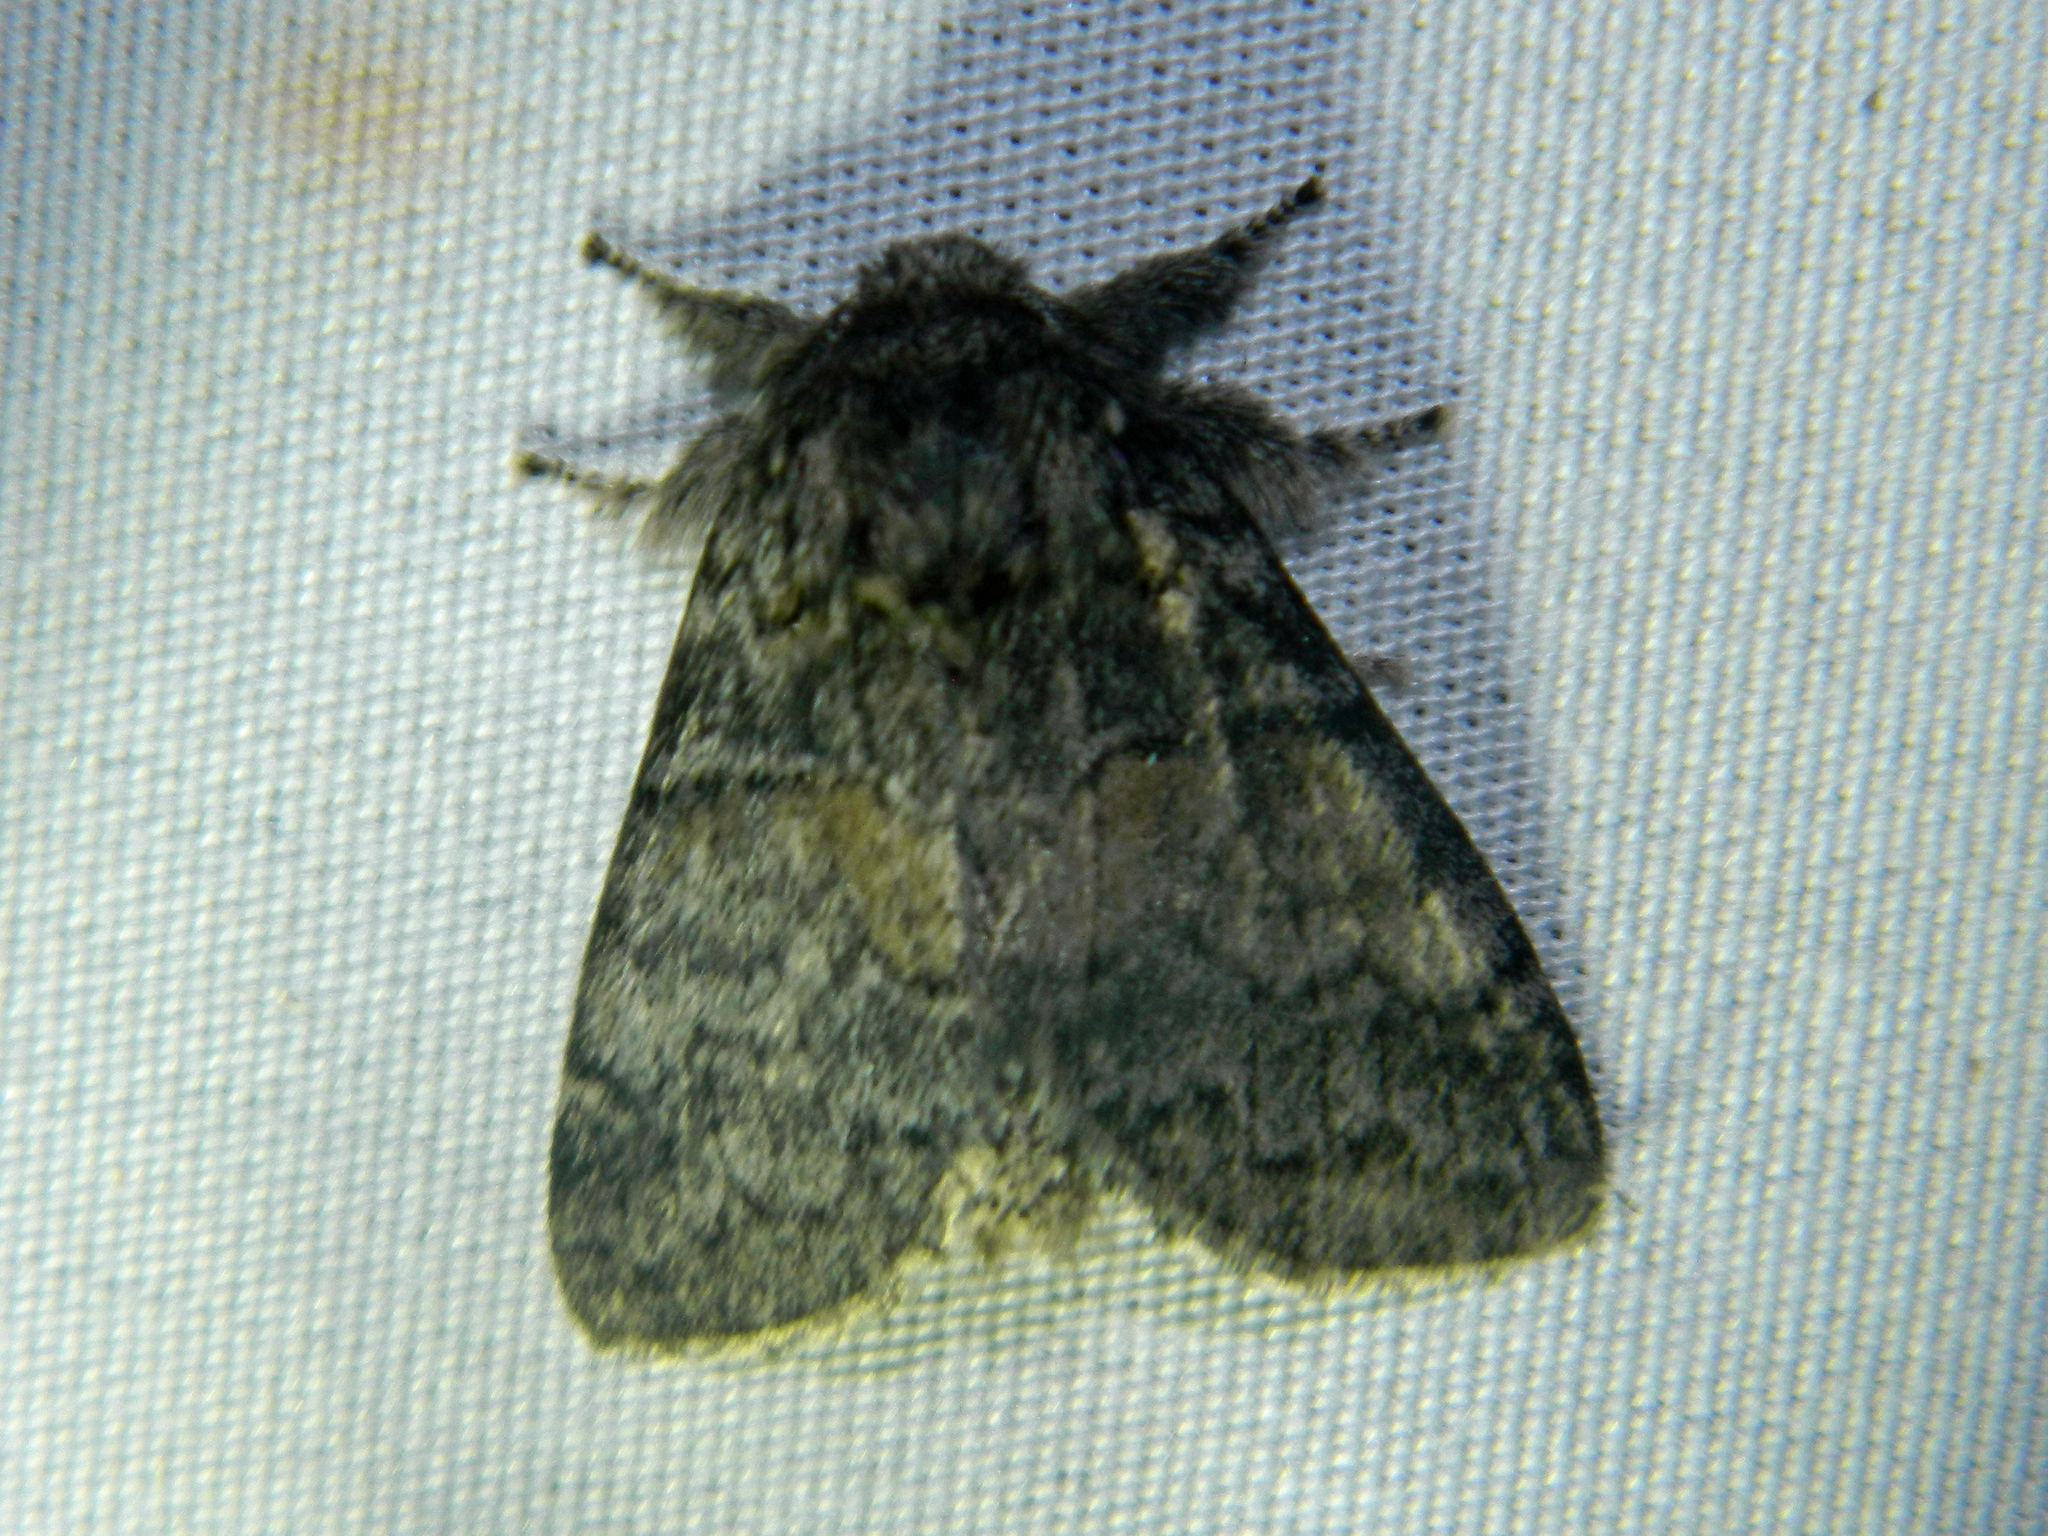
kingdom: Animalia
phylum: Arthropoda
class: Insecta
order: Lepidoptera
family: Notodontidae
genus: Gluphisia
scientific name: Gluphisia septentrionis
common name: Common gluphisia
